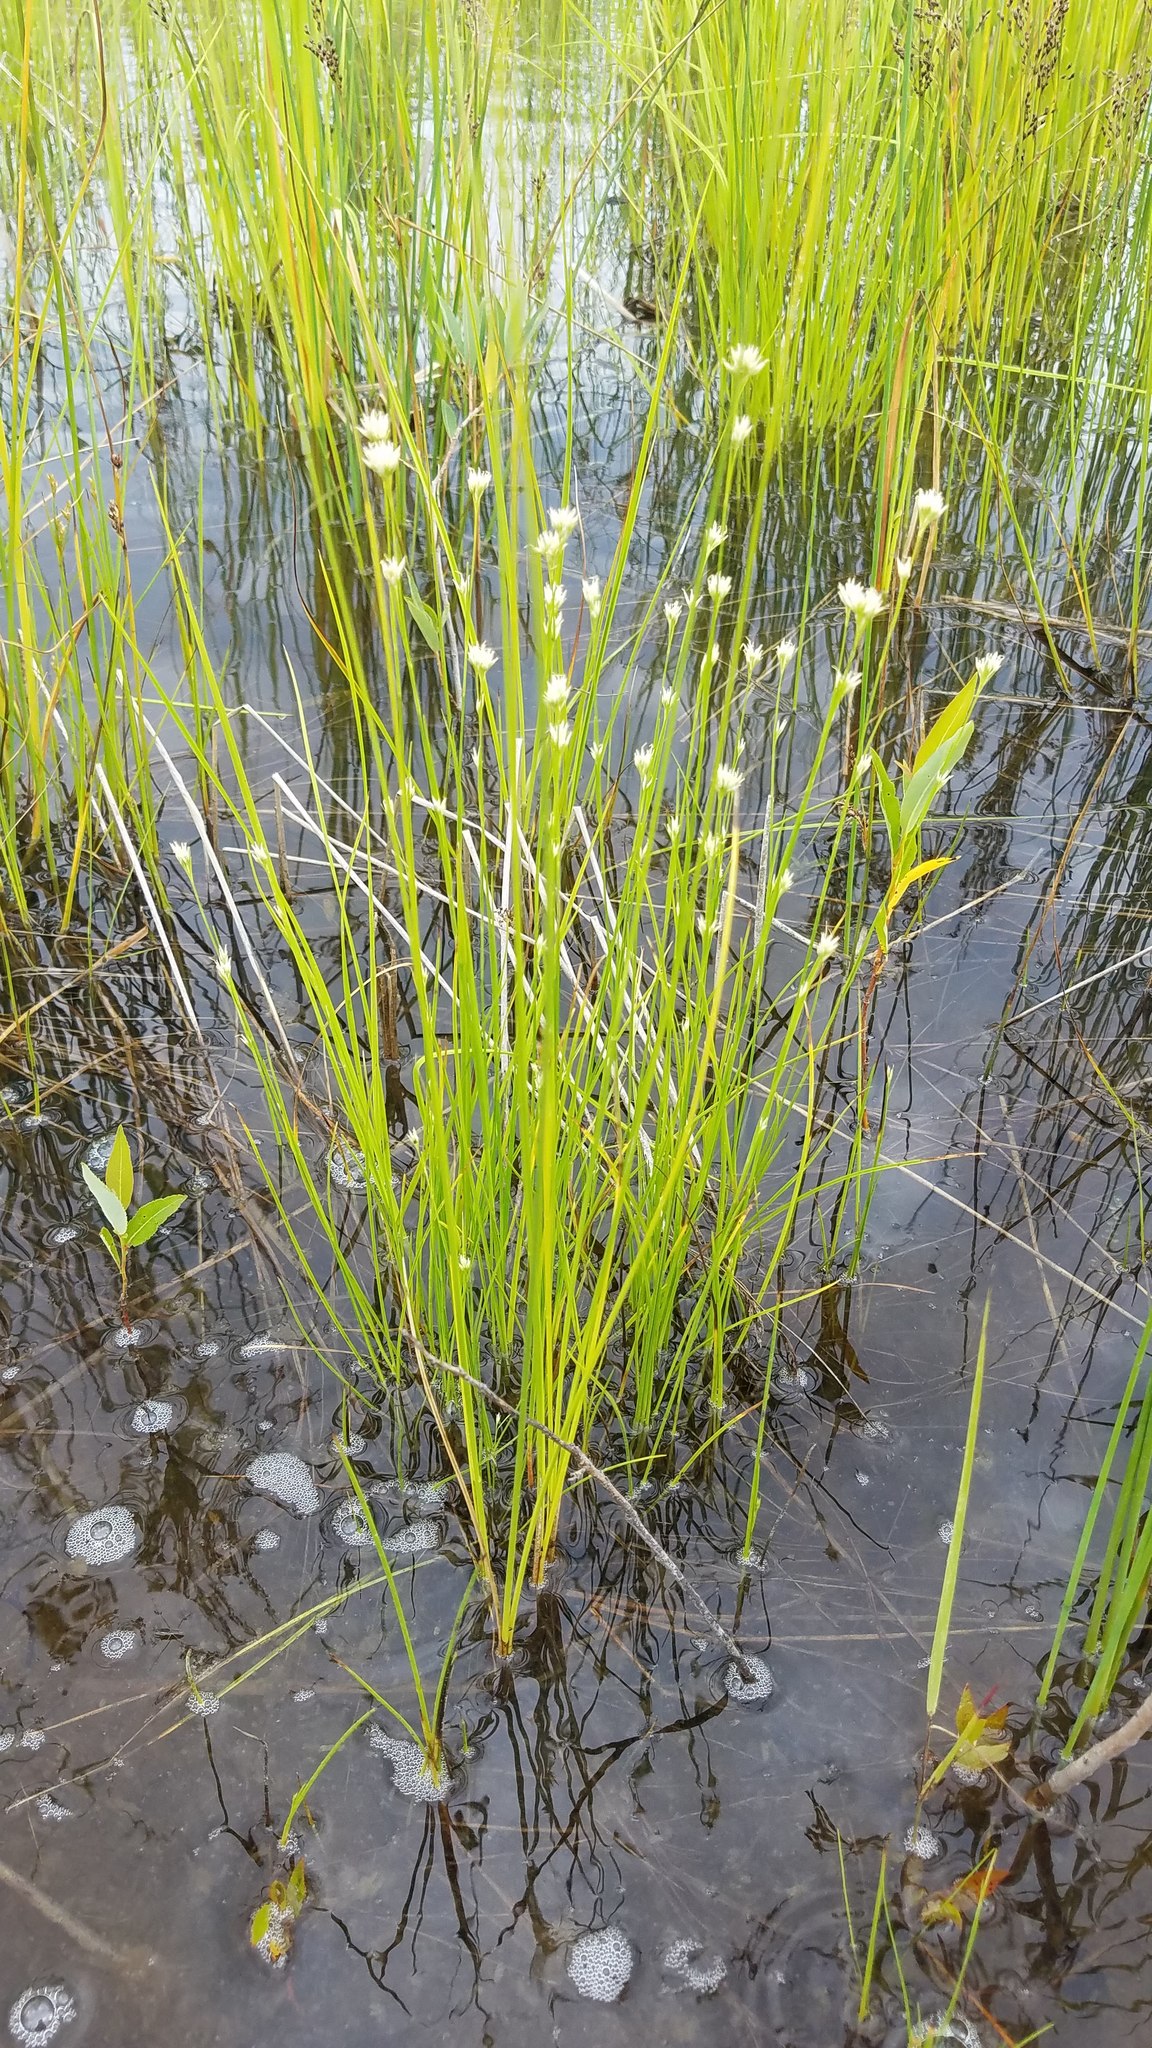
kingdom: Plantae
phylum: Tracheophyta
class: Liliopsida
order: Poales
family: Cyperaceae
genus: Rhynchospora
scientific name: Rhynchospora alba
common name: White beak-sedge
